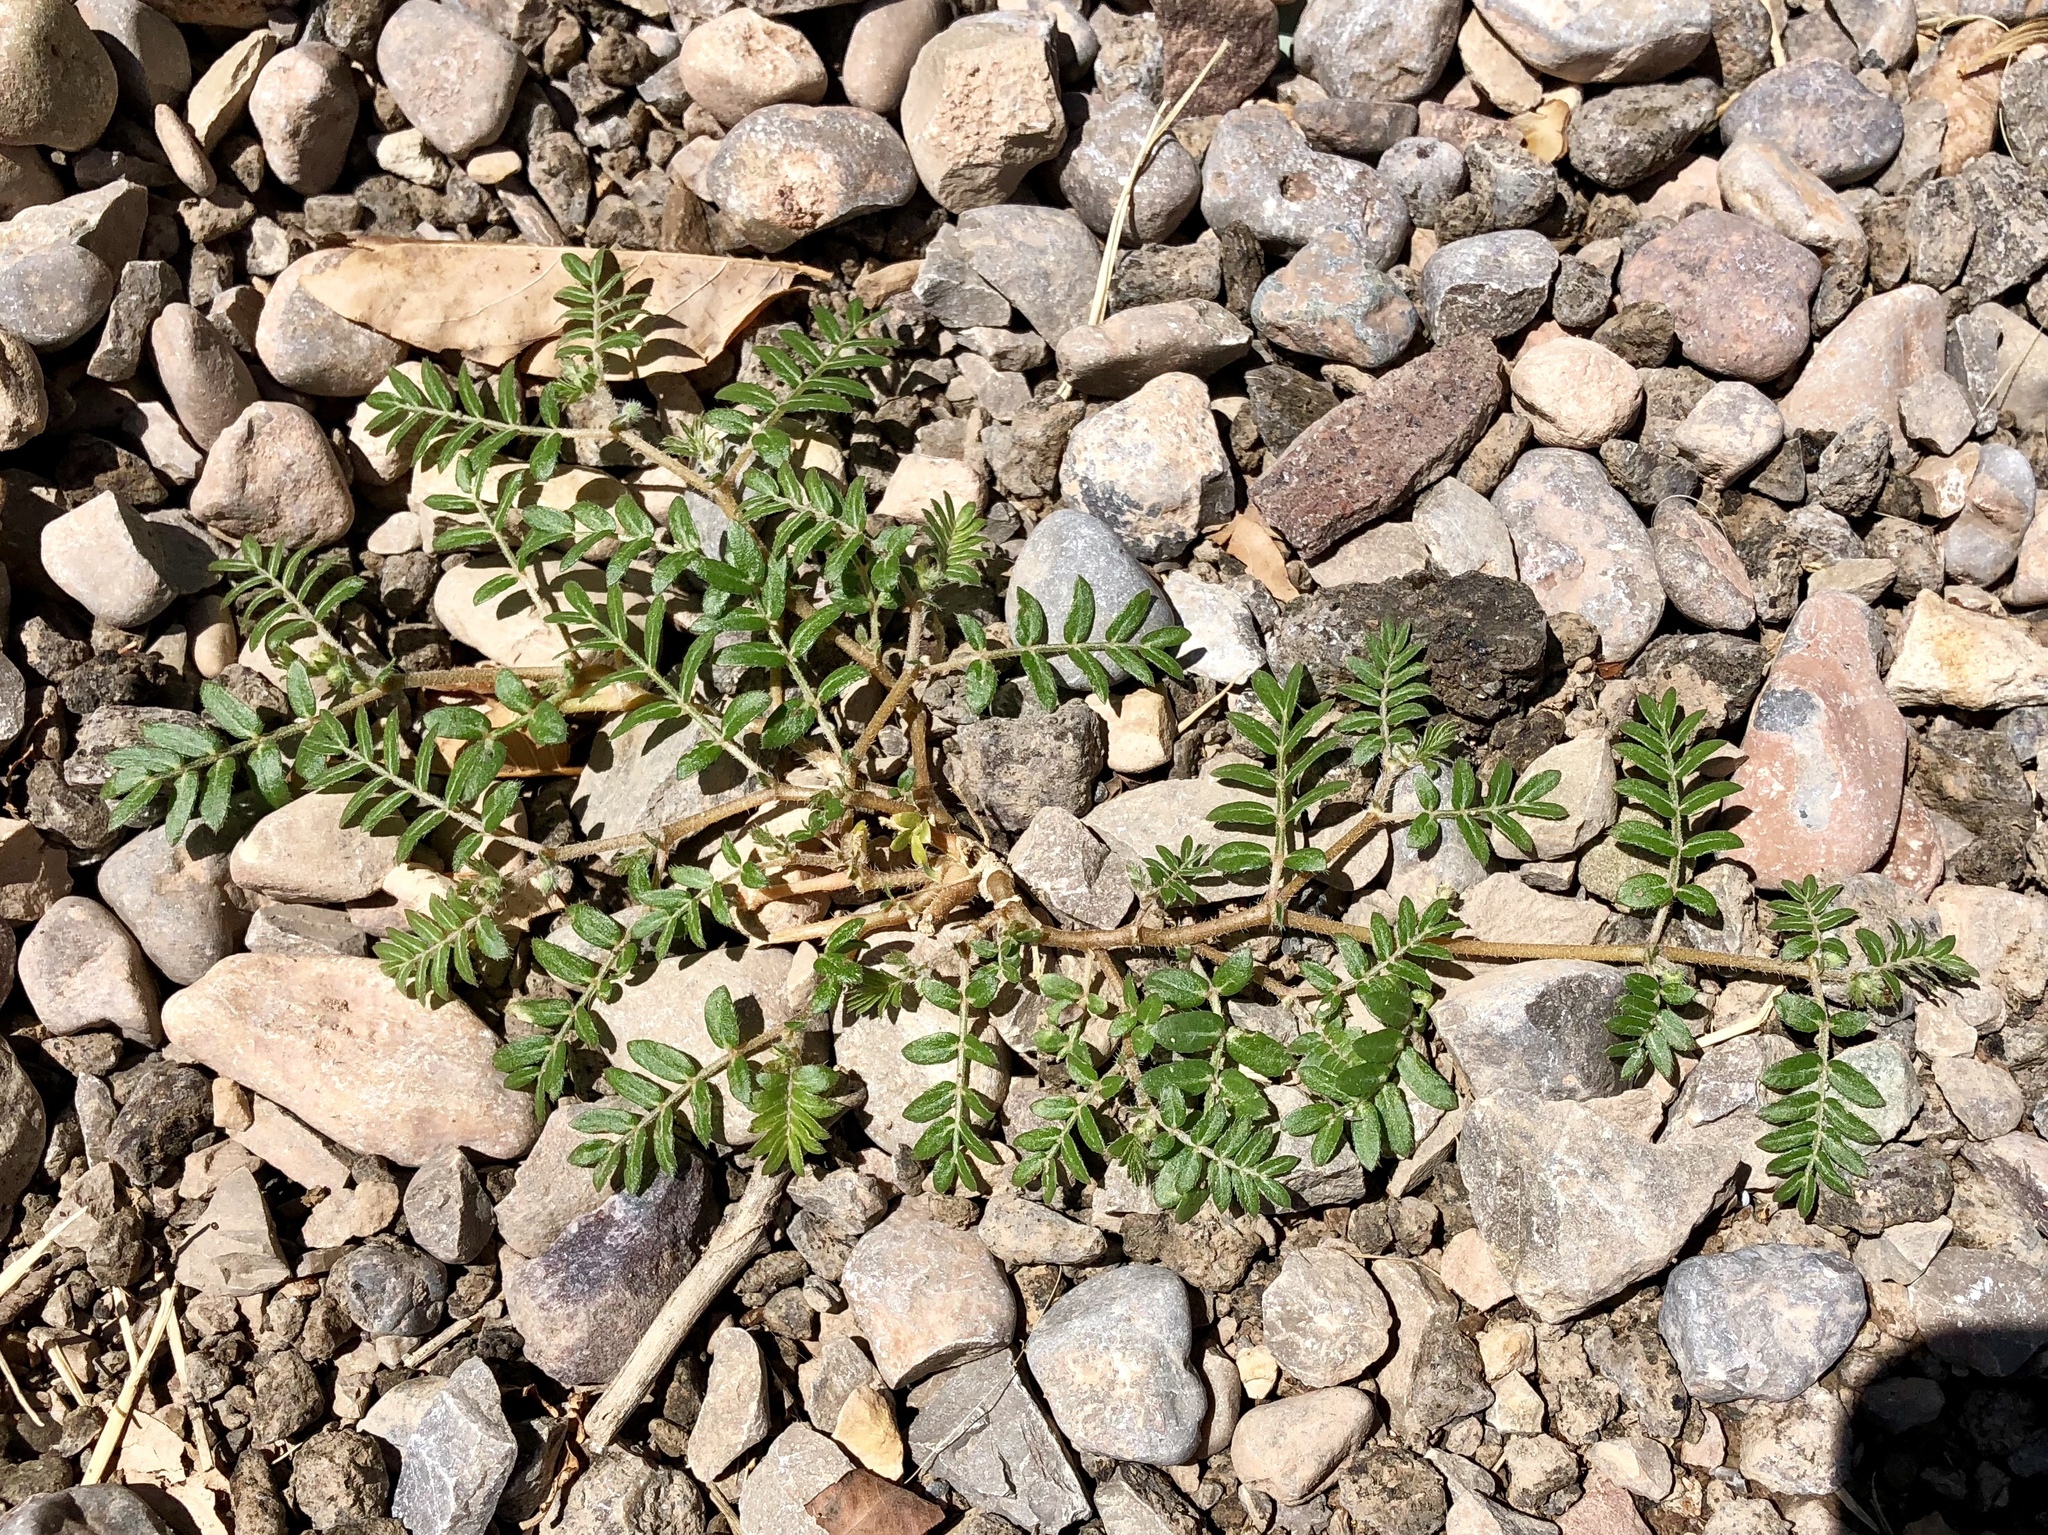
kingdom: Plantae
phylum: Tracheophyta
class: Magnoliopsida
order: Zygophyllales
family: Zygophyllaceae
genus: Tribulus
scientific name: Tribulus terrestris
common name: Puncturevine
